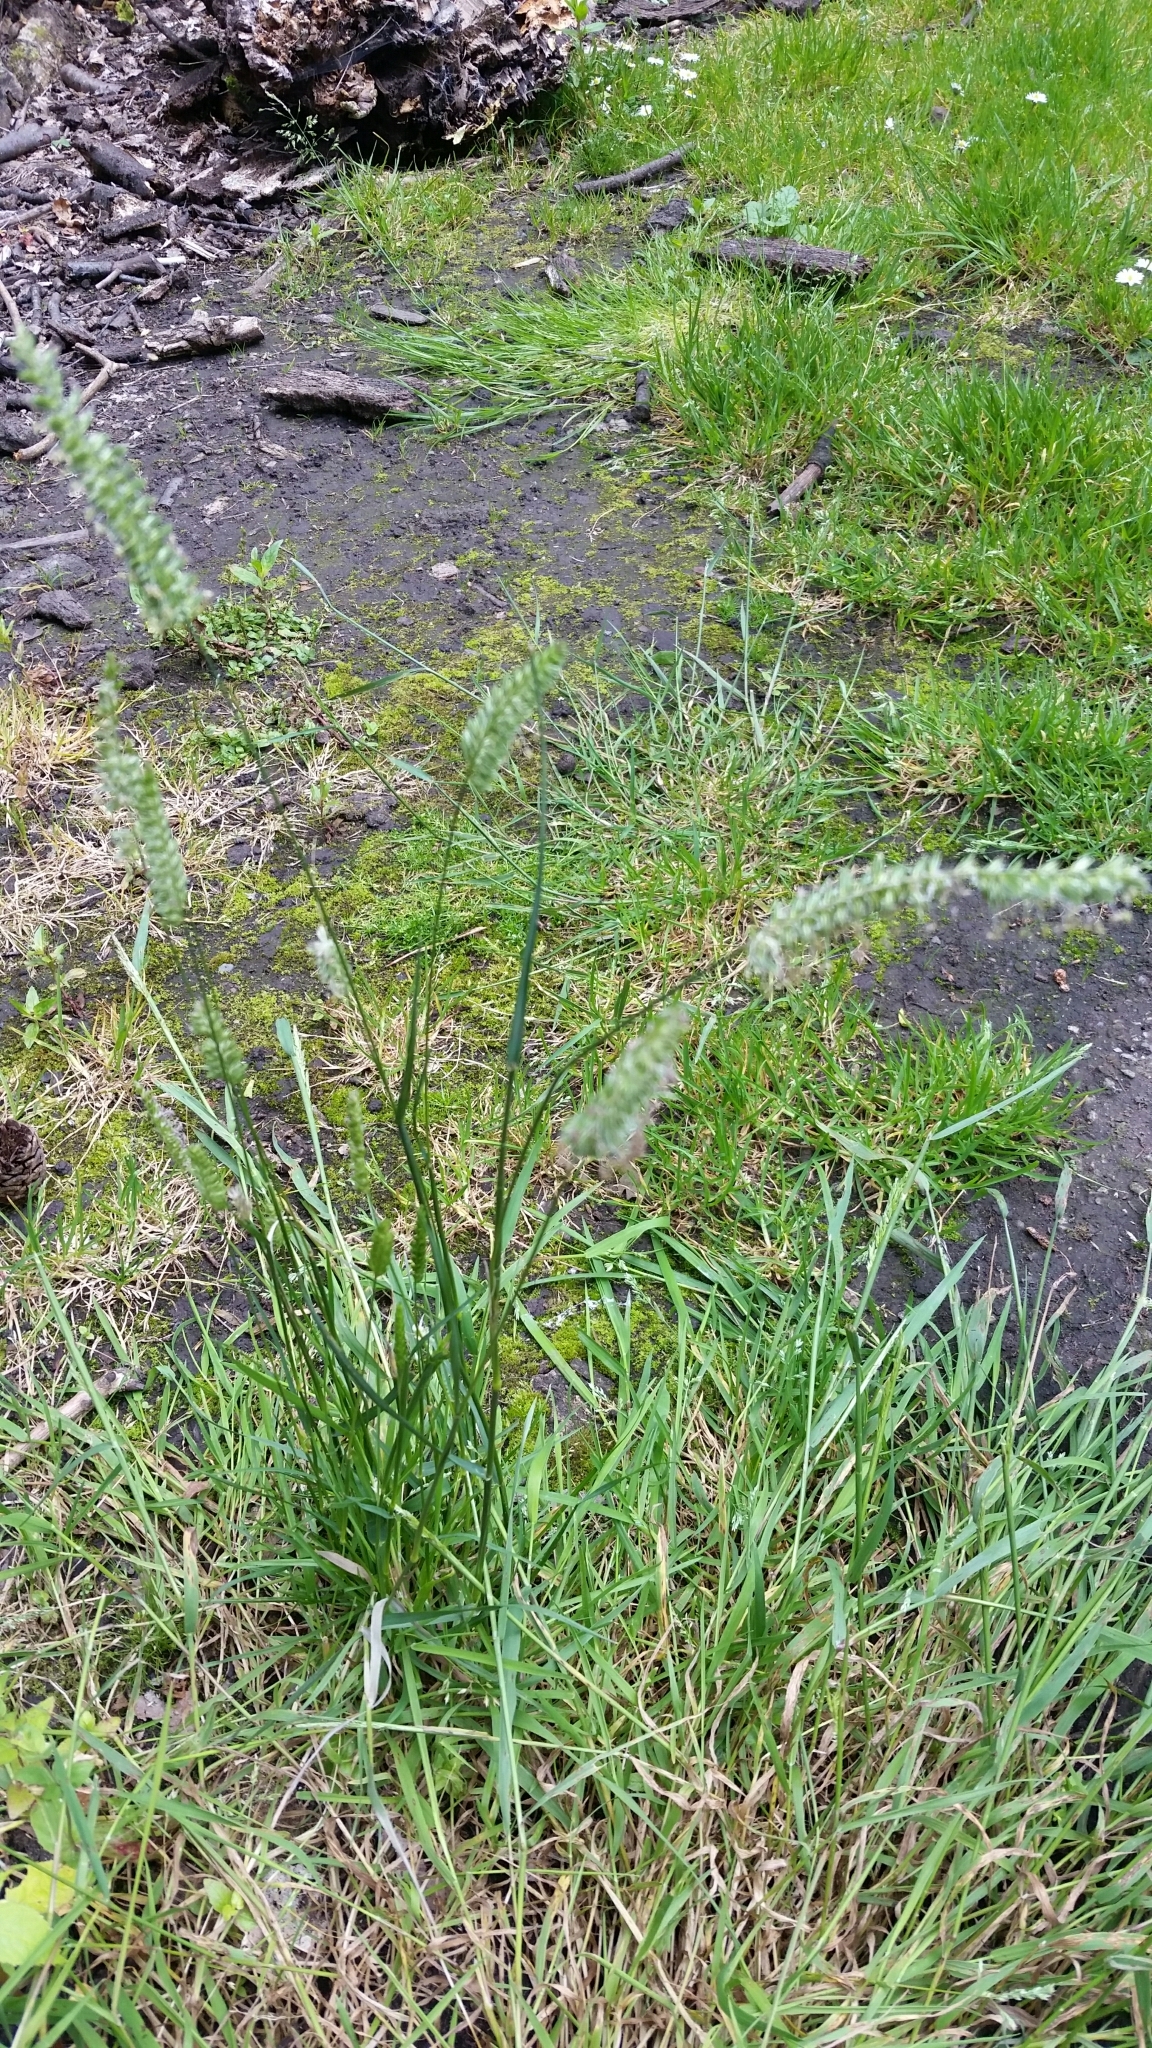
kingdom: Plantae
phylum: Tracheophyta
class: Liliopsida
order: Poales
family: Poaceae
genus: Cynosurus
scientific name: Cynosurus cristatus
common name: Crested dog's-tail
